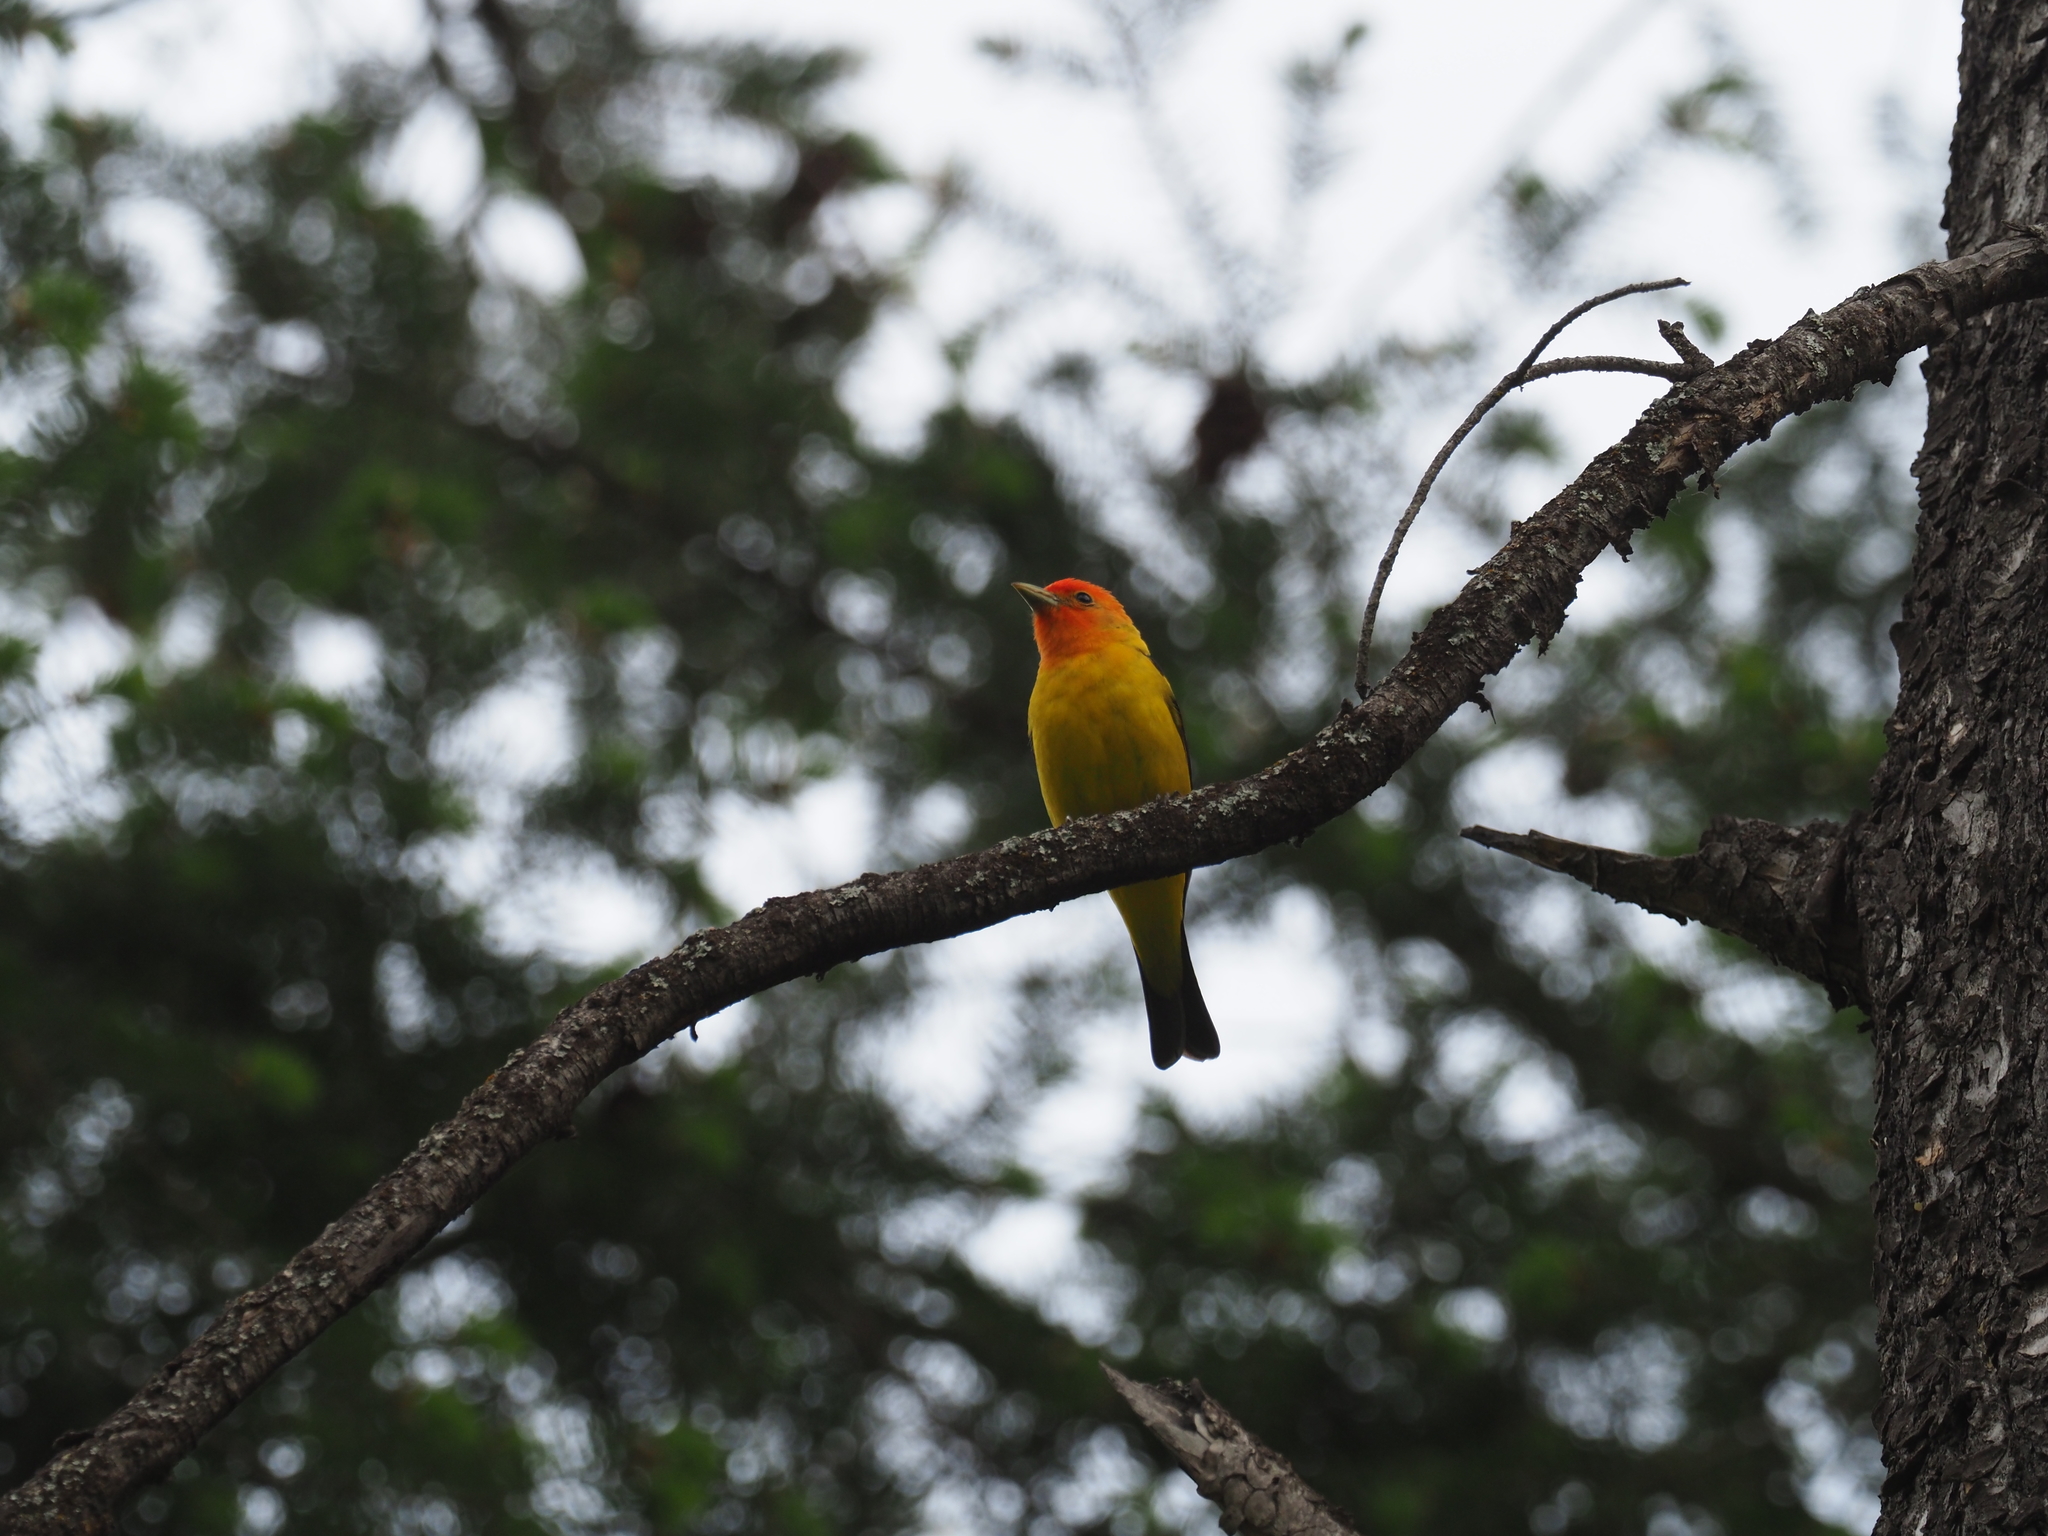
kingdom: Animalia
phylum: Chordata
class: Aves
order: Passeriformes
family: Cardinalidae
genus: Piranga
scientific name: Piranga ludoviciana
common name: Western tanager
